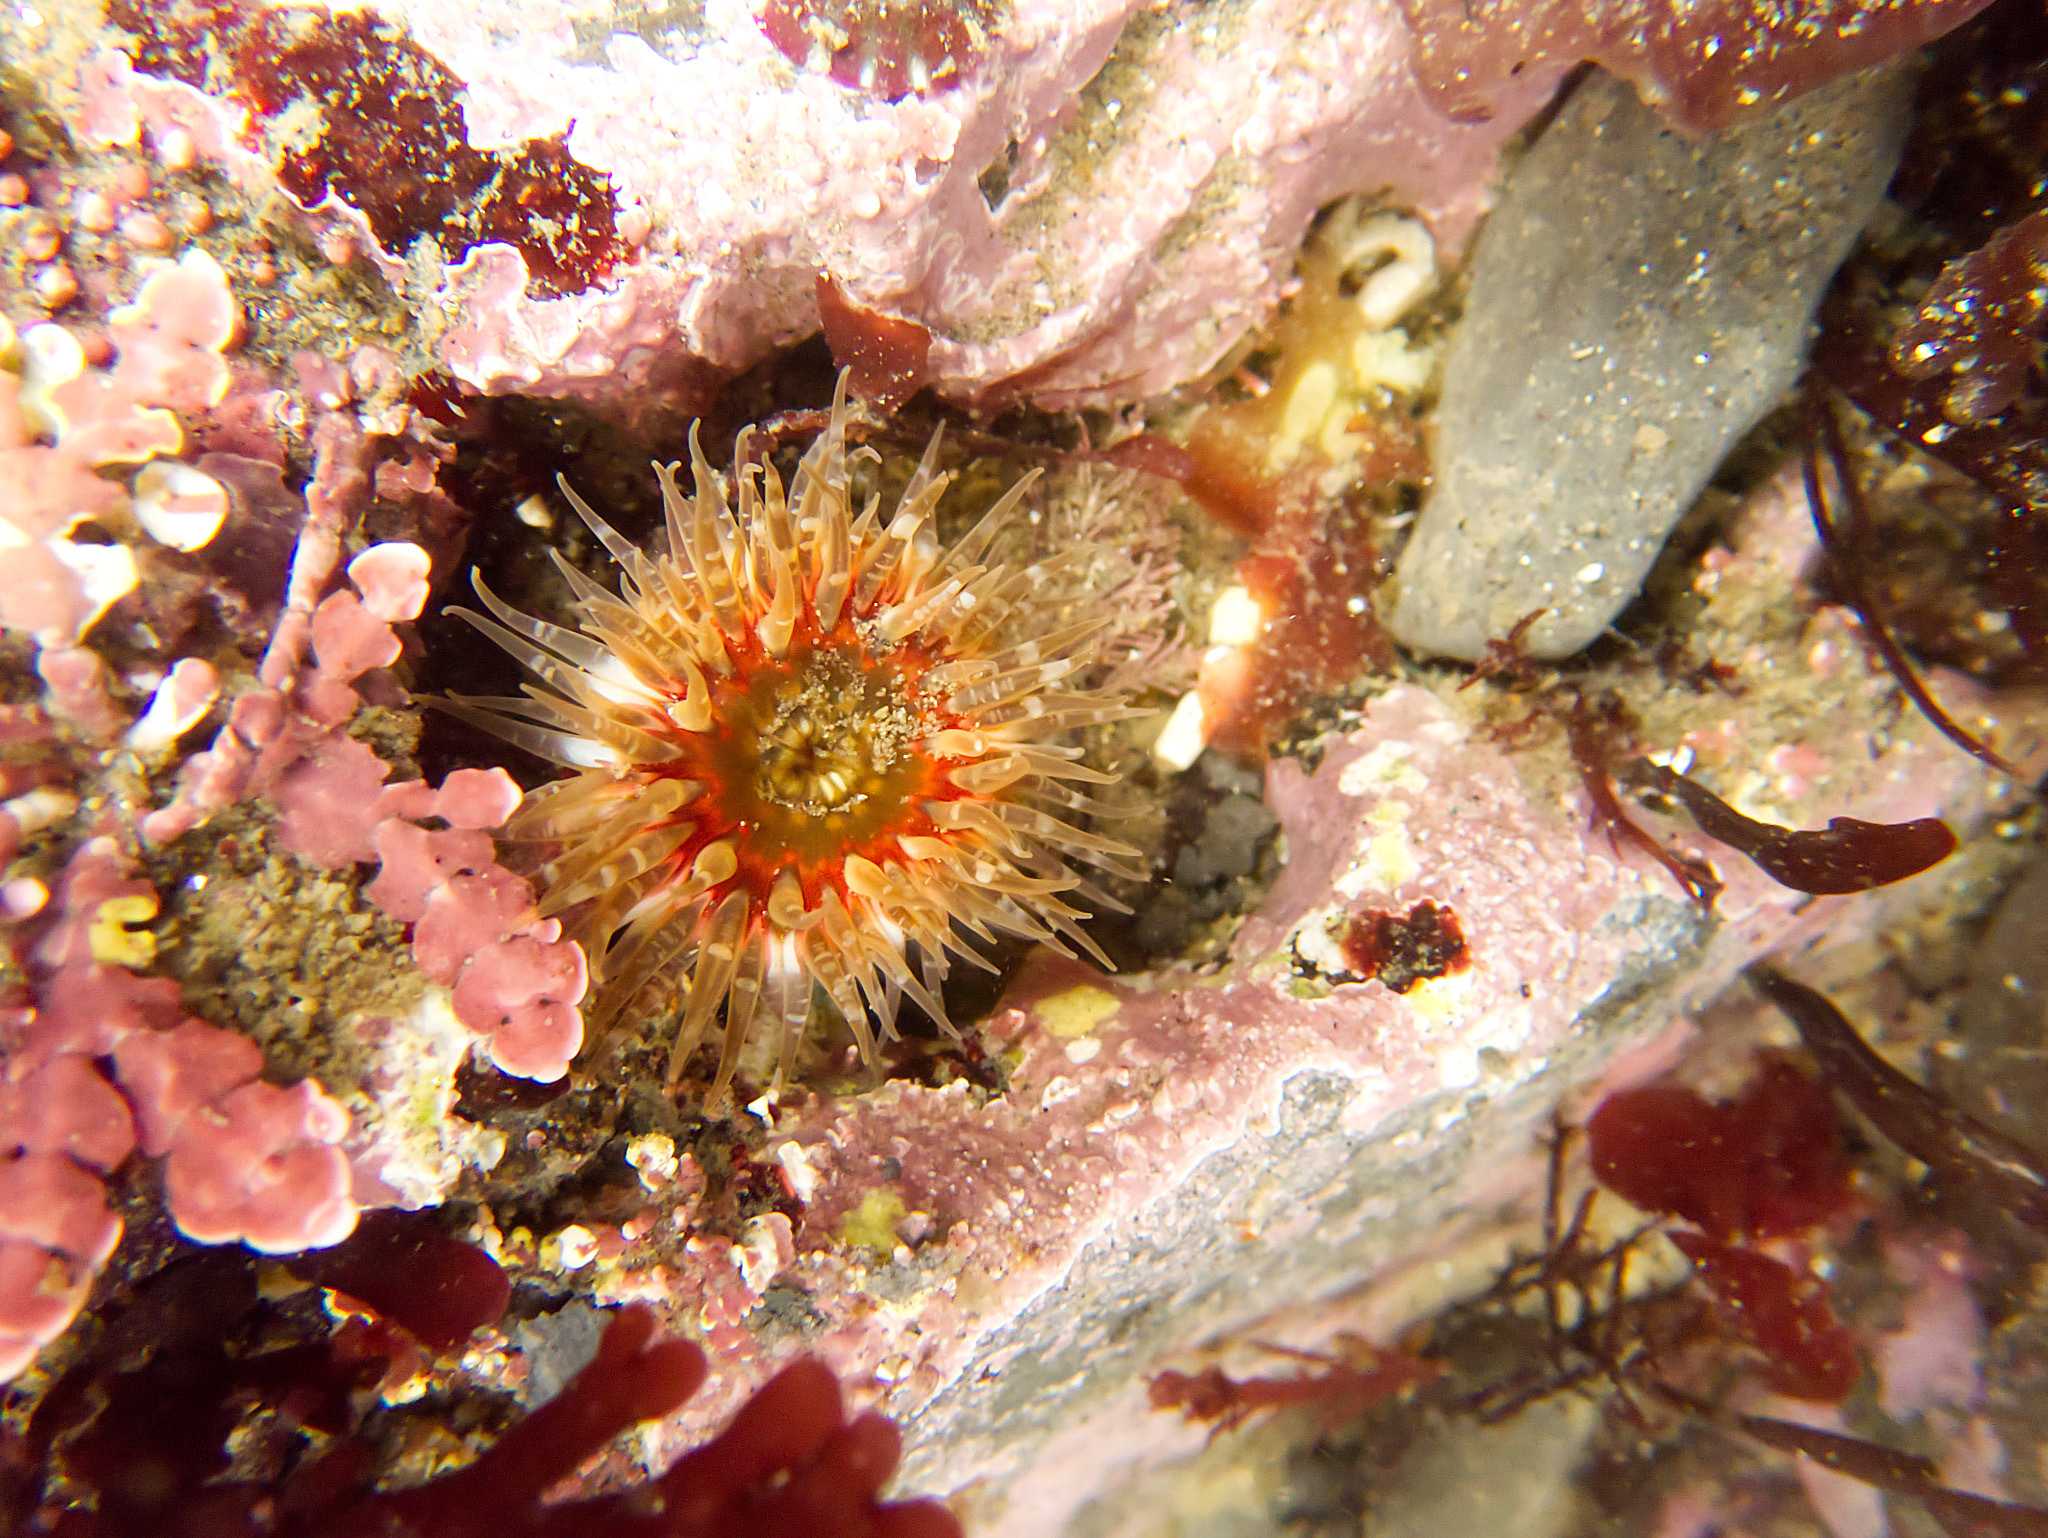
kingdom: Animalia
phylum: Cnidaria
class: Anthozoa
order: Actiniaria
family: Actiniidae
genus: Anthopleura
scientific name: Anthopleura artemisia
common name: Buried sea anemone
